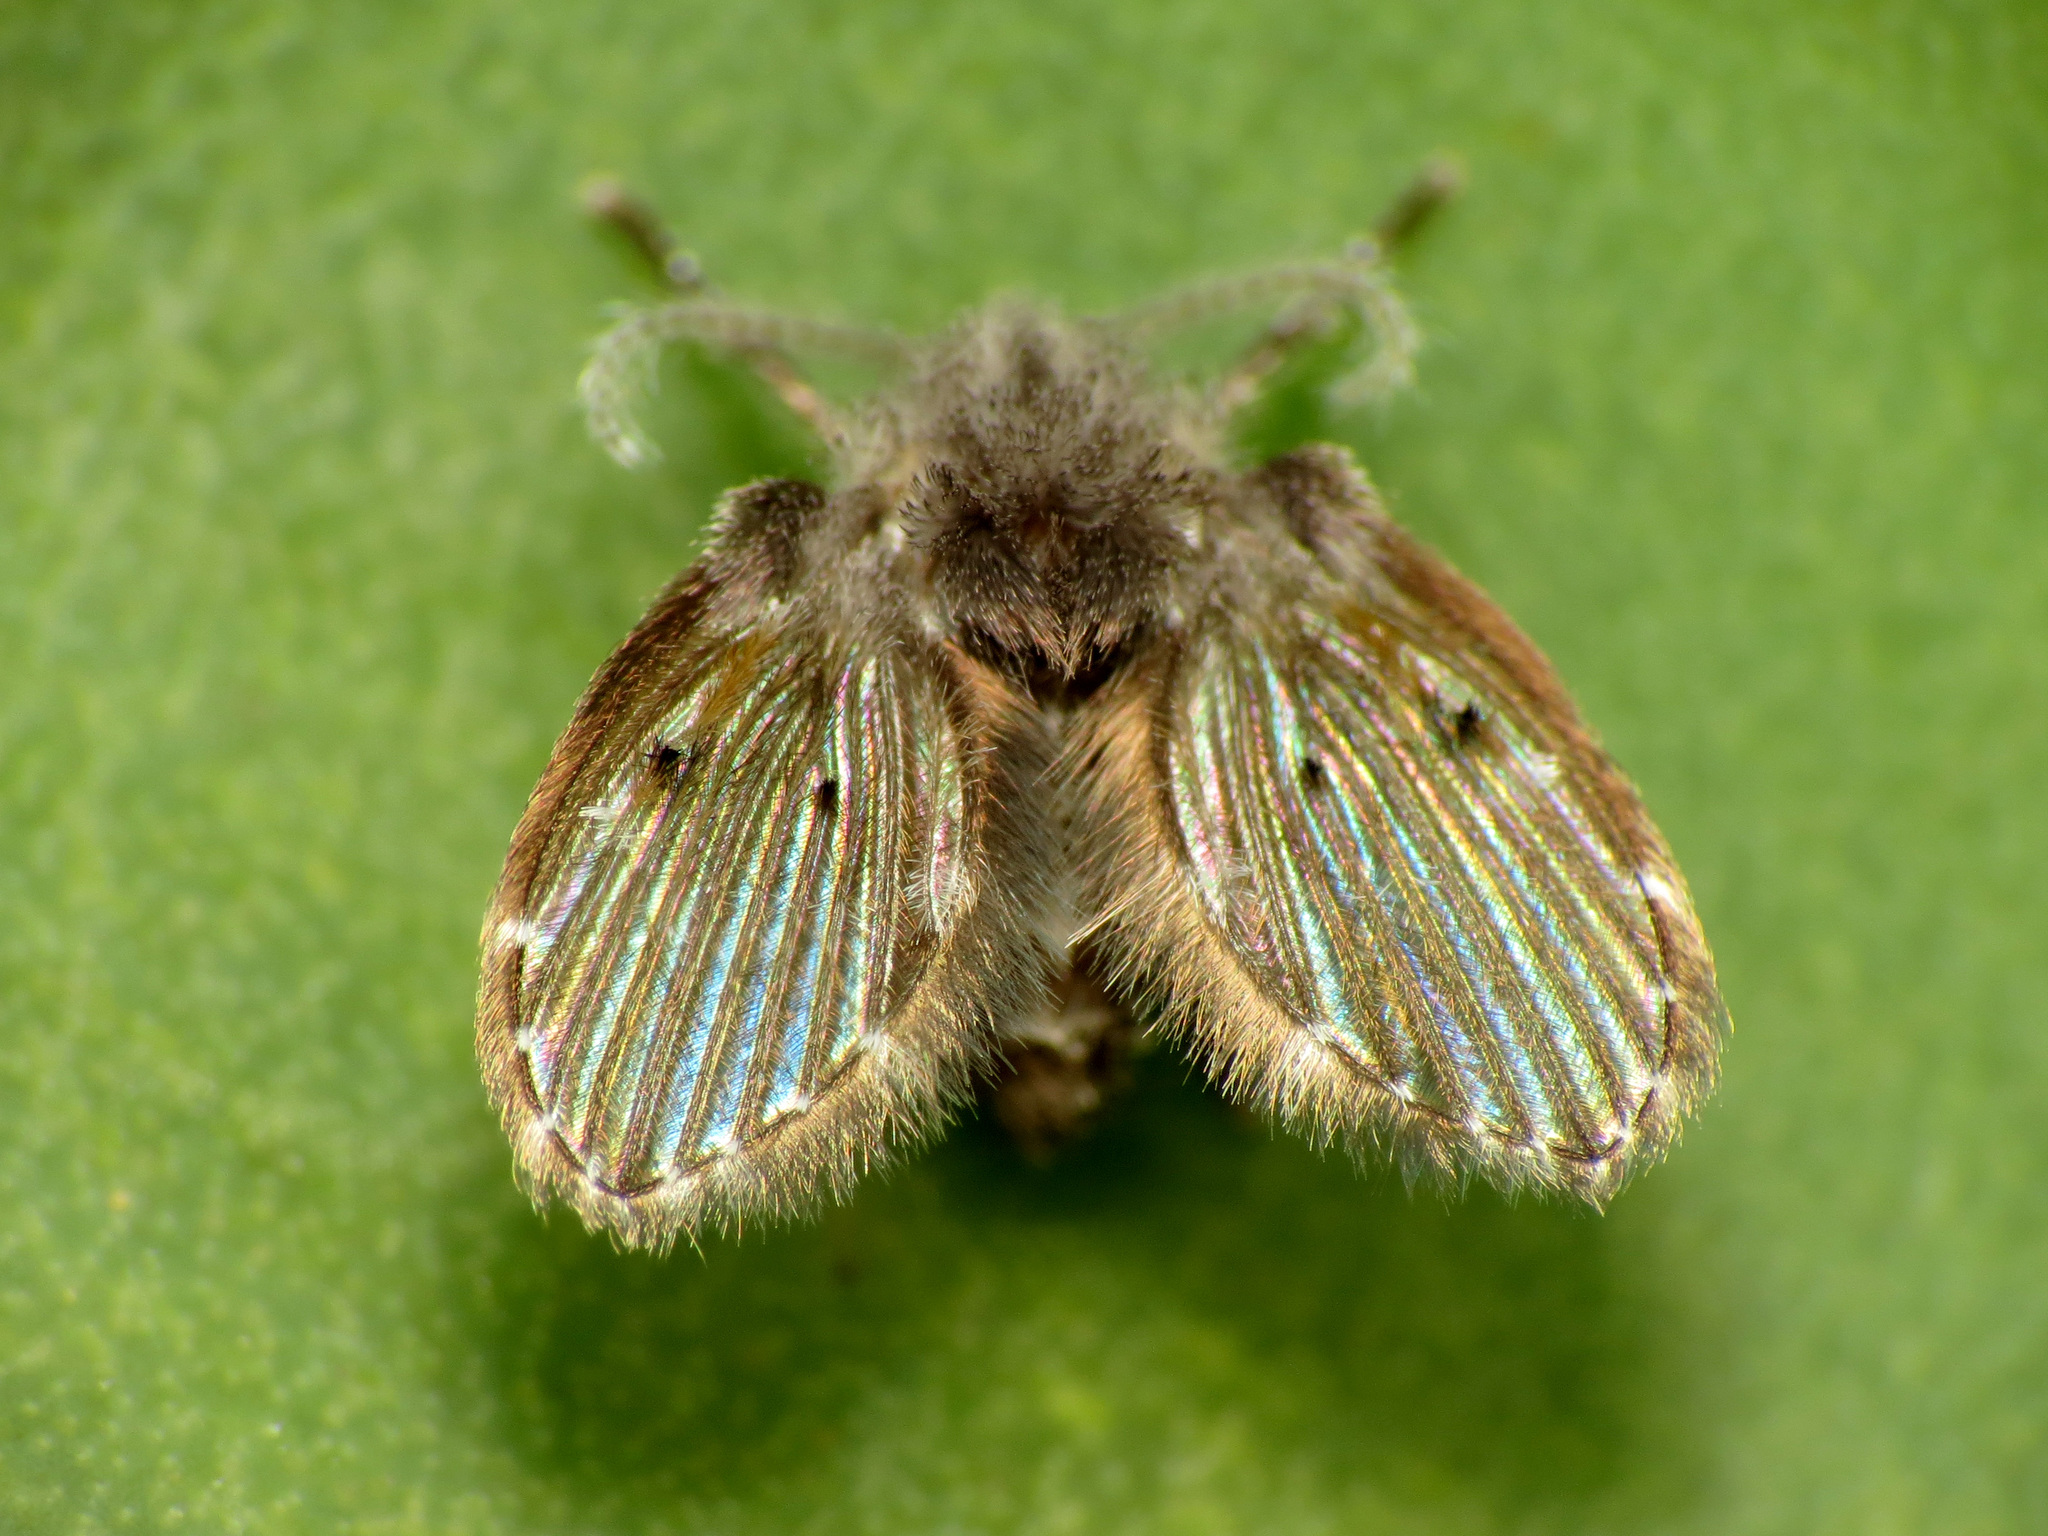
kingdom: Animalia
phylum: Arthropoda
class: Insecta
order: Diptera
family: Psychodidae
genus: Clogmia
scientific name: Clogmia albipunctatus
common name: White-spotted moth fly
